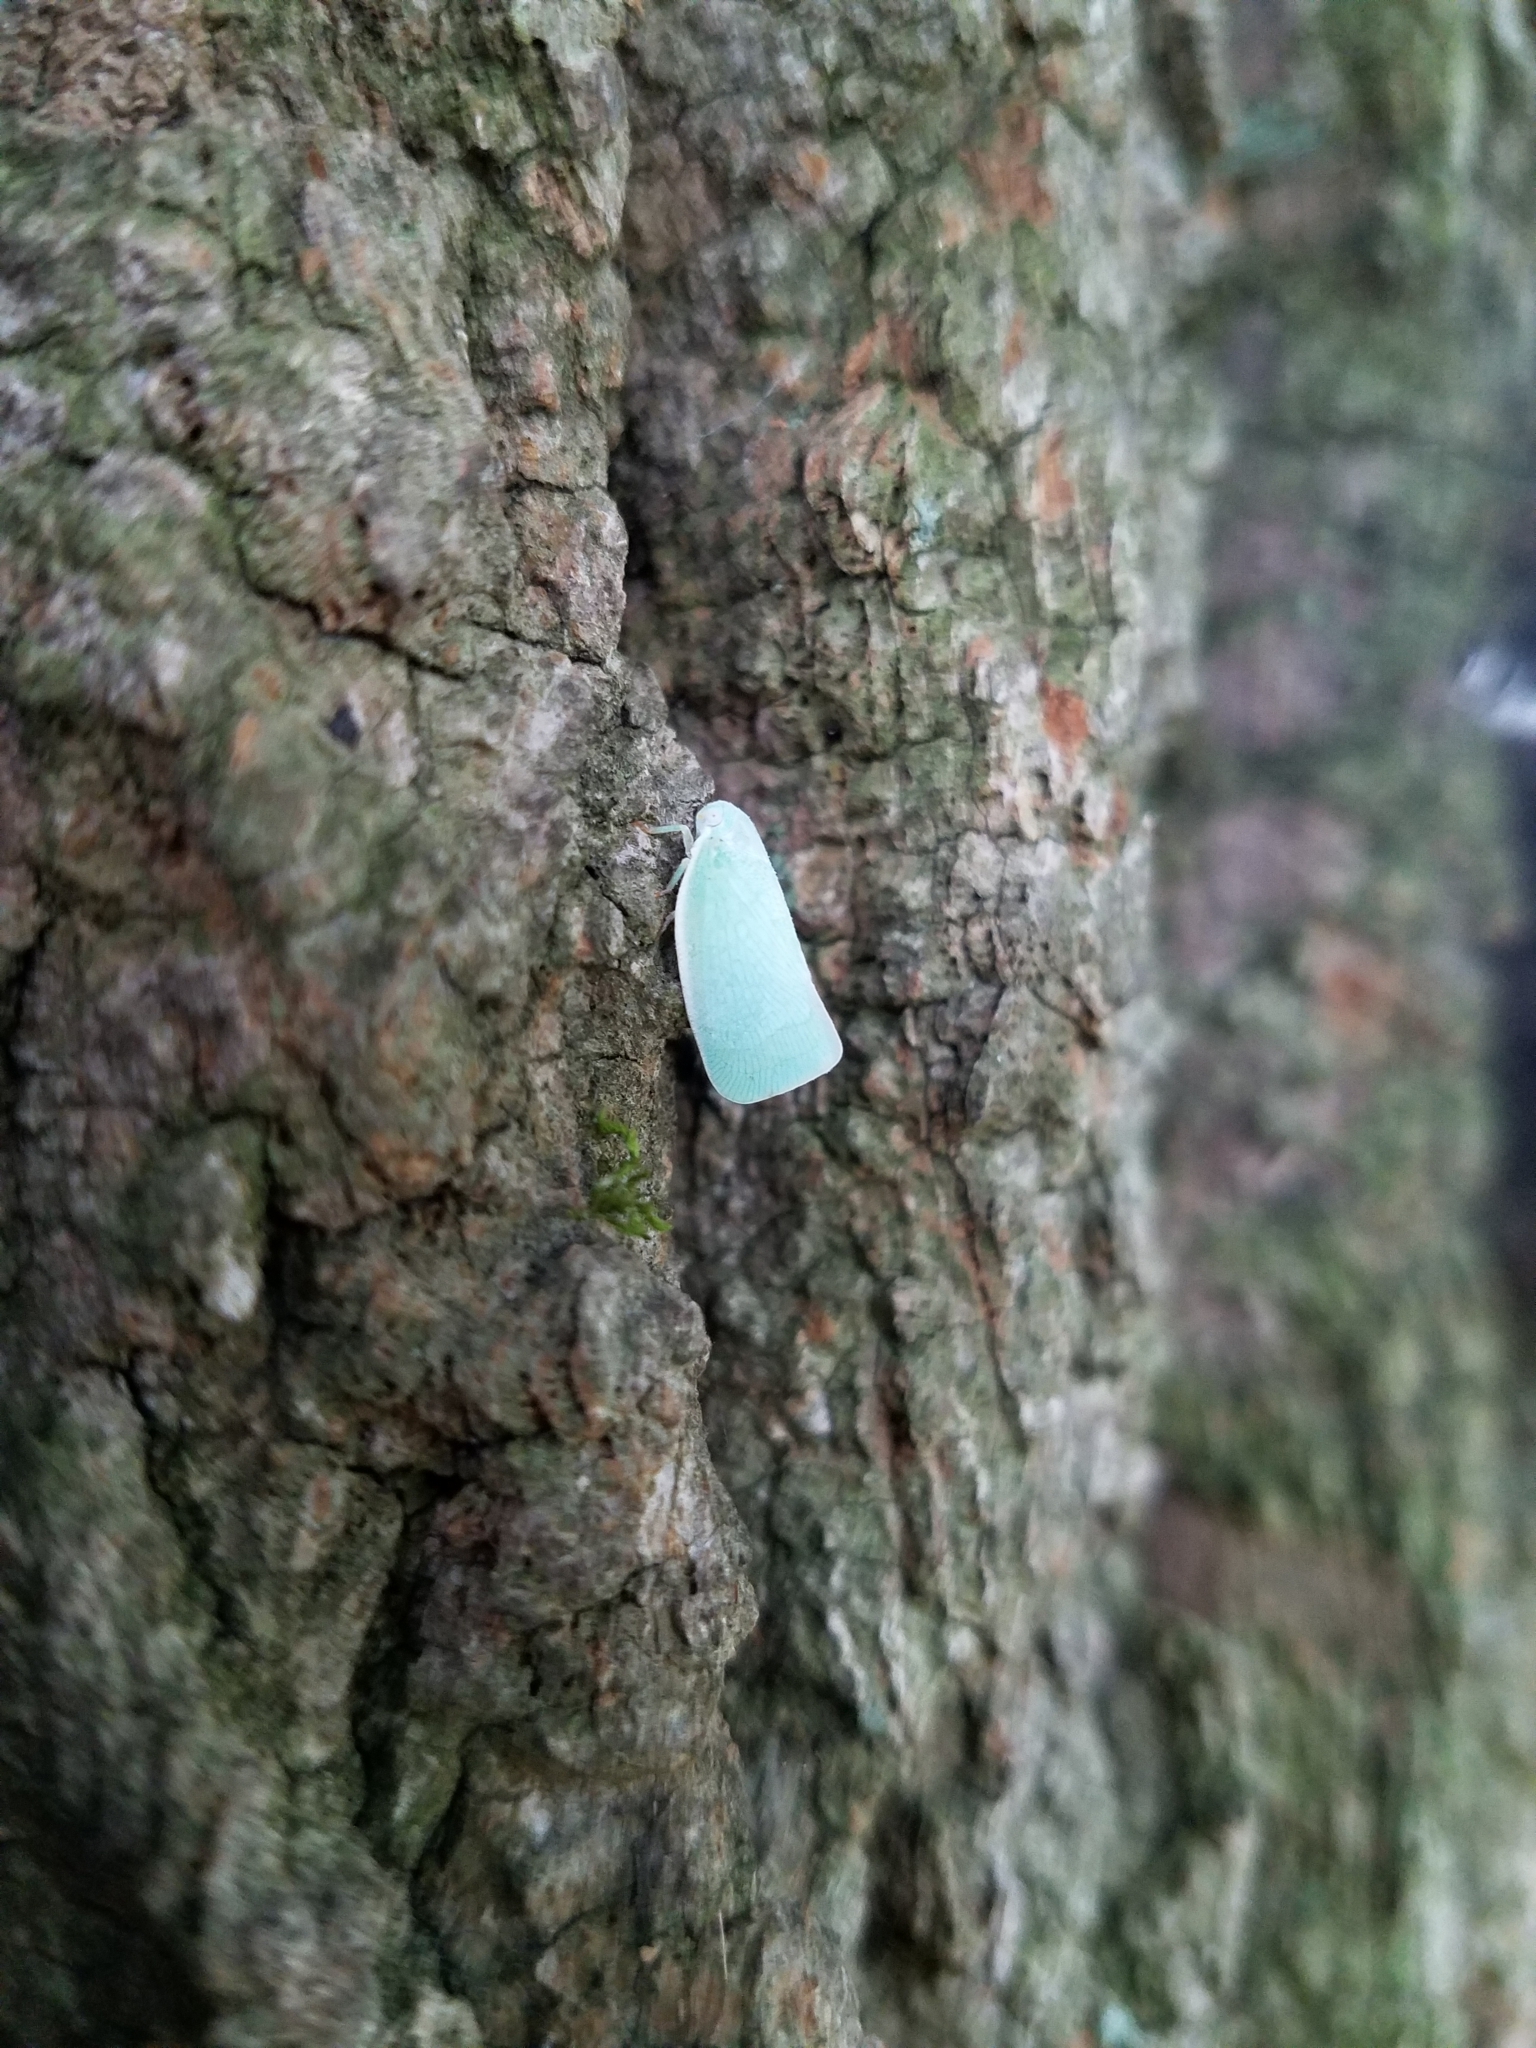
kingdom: Animalia
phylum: Arthropoda
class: Insecta
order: Hemiptera
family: Flatidae
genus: Flatormenis
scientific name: Flatormenis proxima
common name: Northern flatid planthopper
